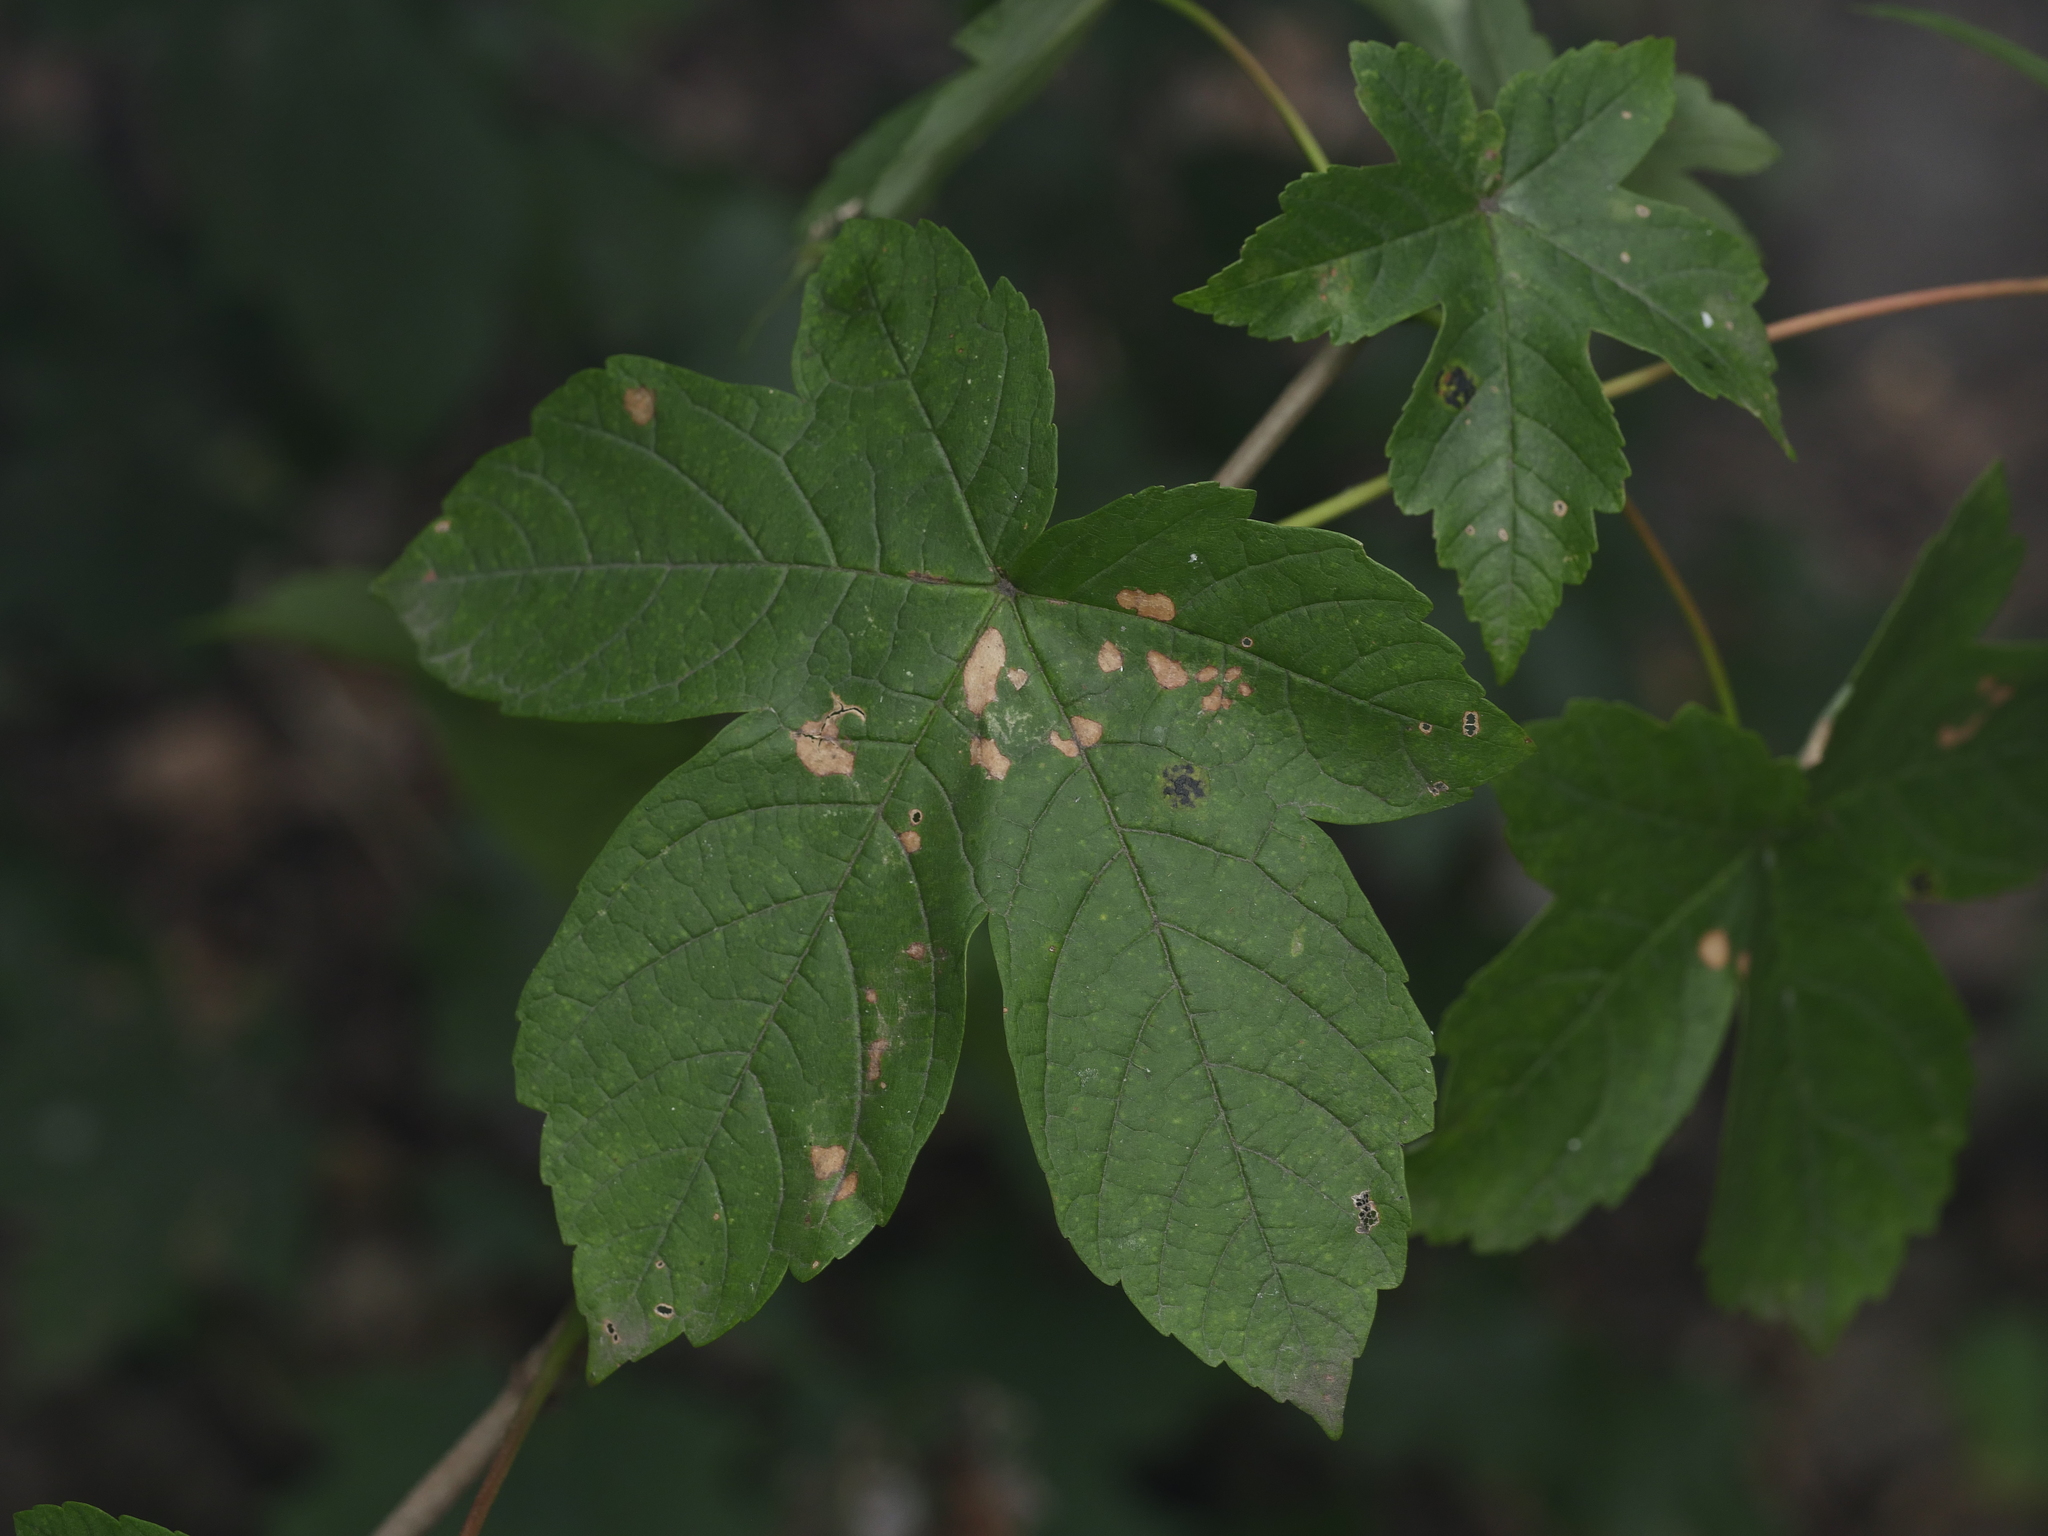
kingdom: Plantae
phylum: Tracheophyta
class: Magnoliopsida
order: Sapindales
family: Sapindaceae
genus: Acer
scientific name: Acer pseudoplatanus
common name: Sycamore
